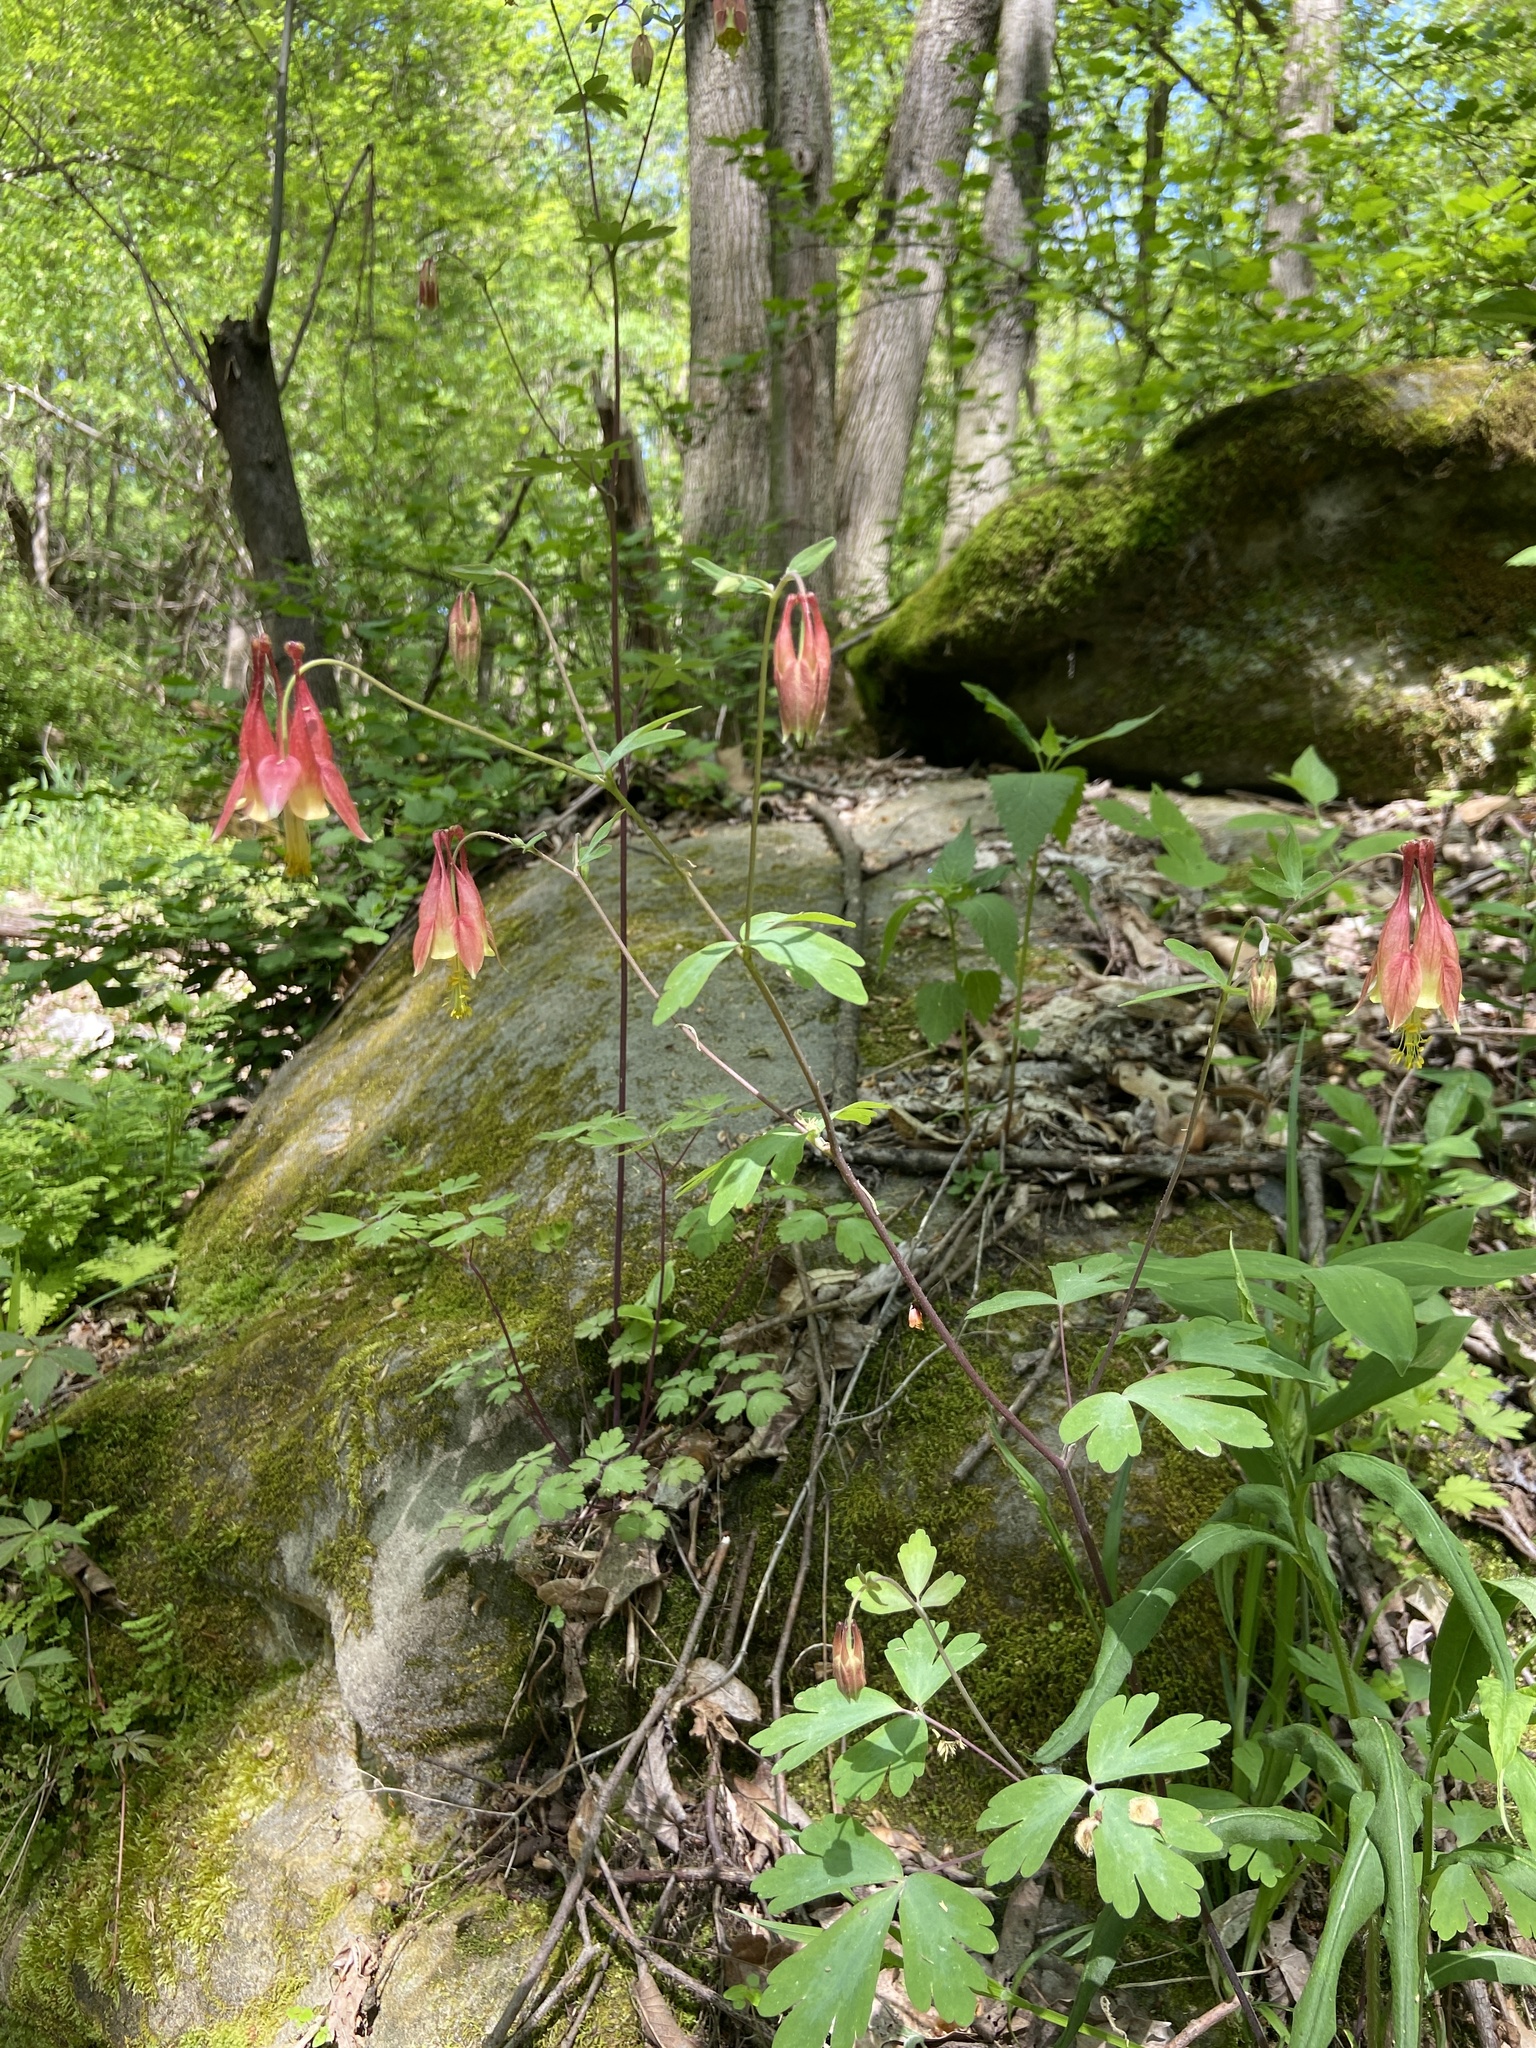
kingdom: Plantae
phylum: Tracheophyta
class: Magnoliopsida
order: Ranunculales
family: Ranunculaceae
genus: Aquilegia
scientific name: Aquilegia canadensis
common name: American columbine
